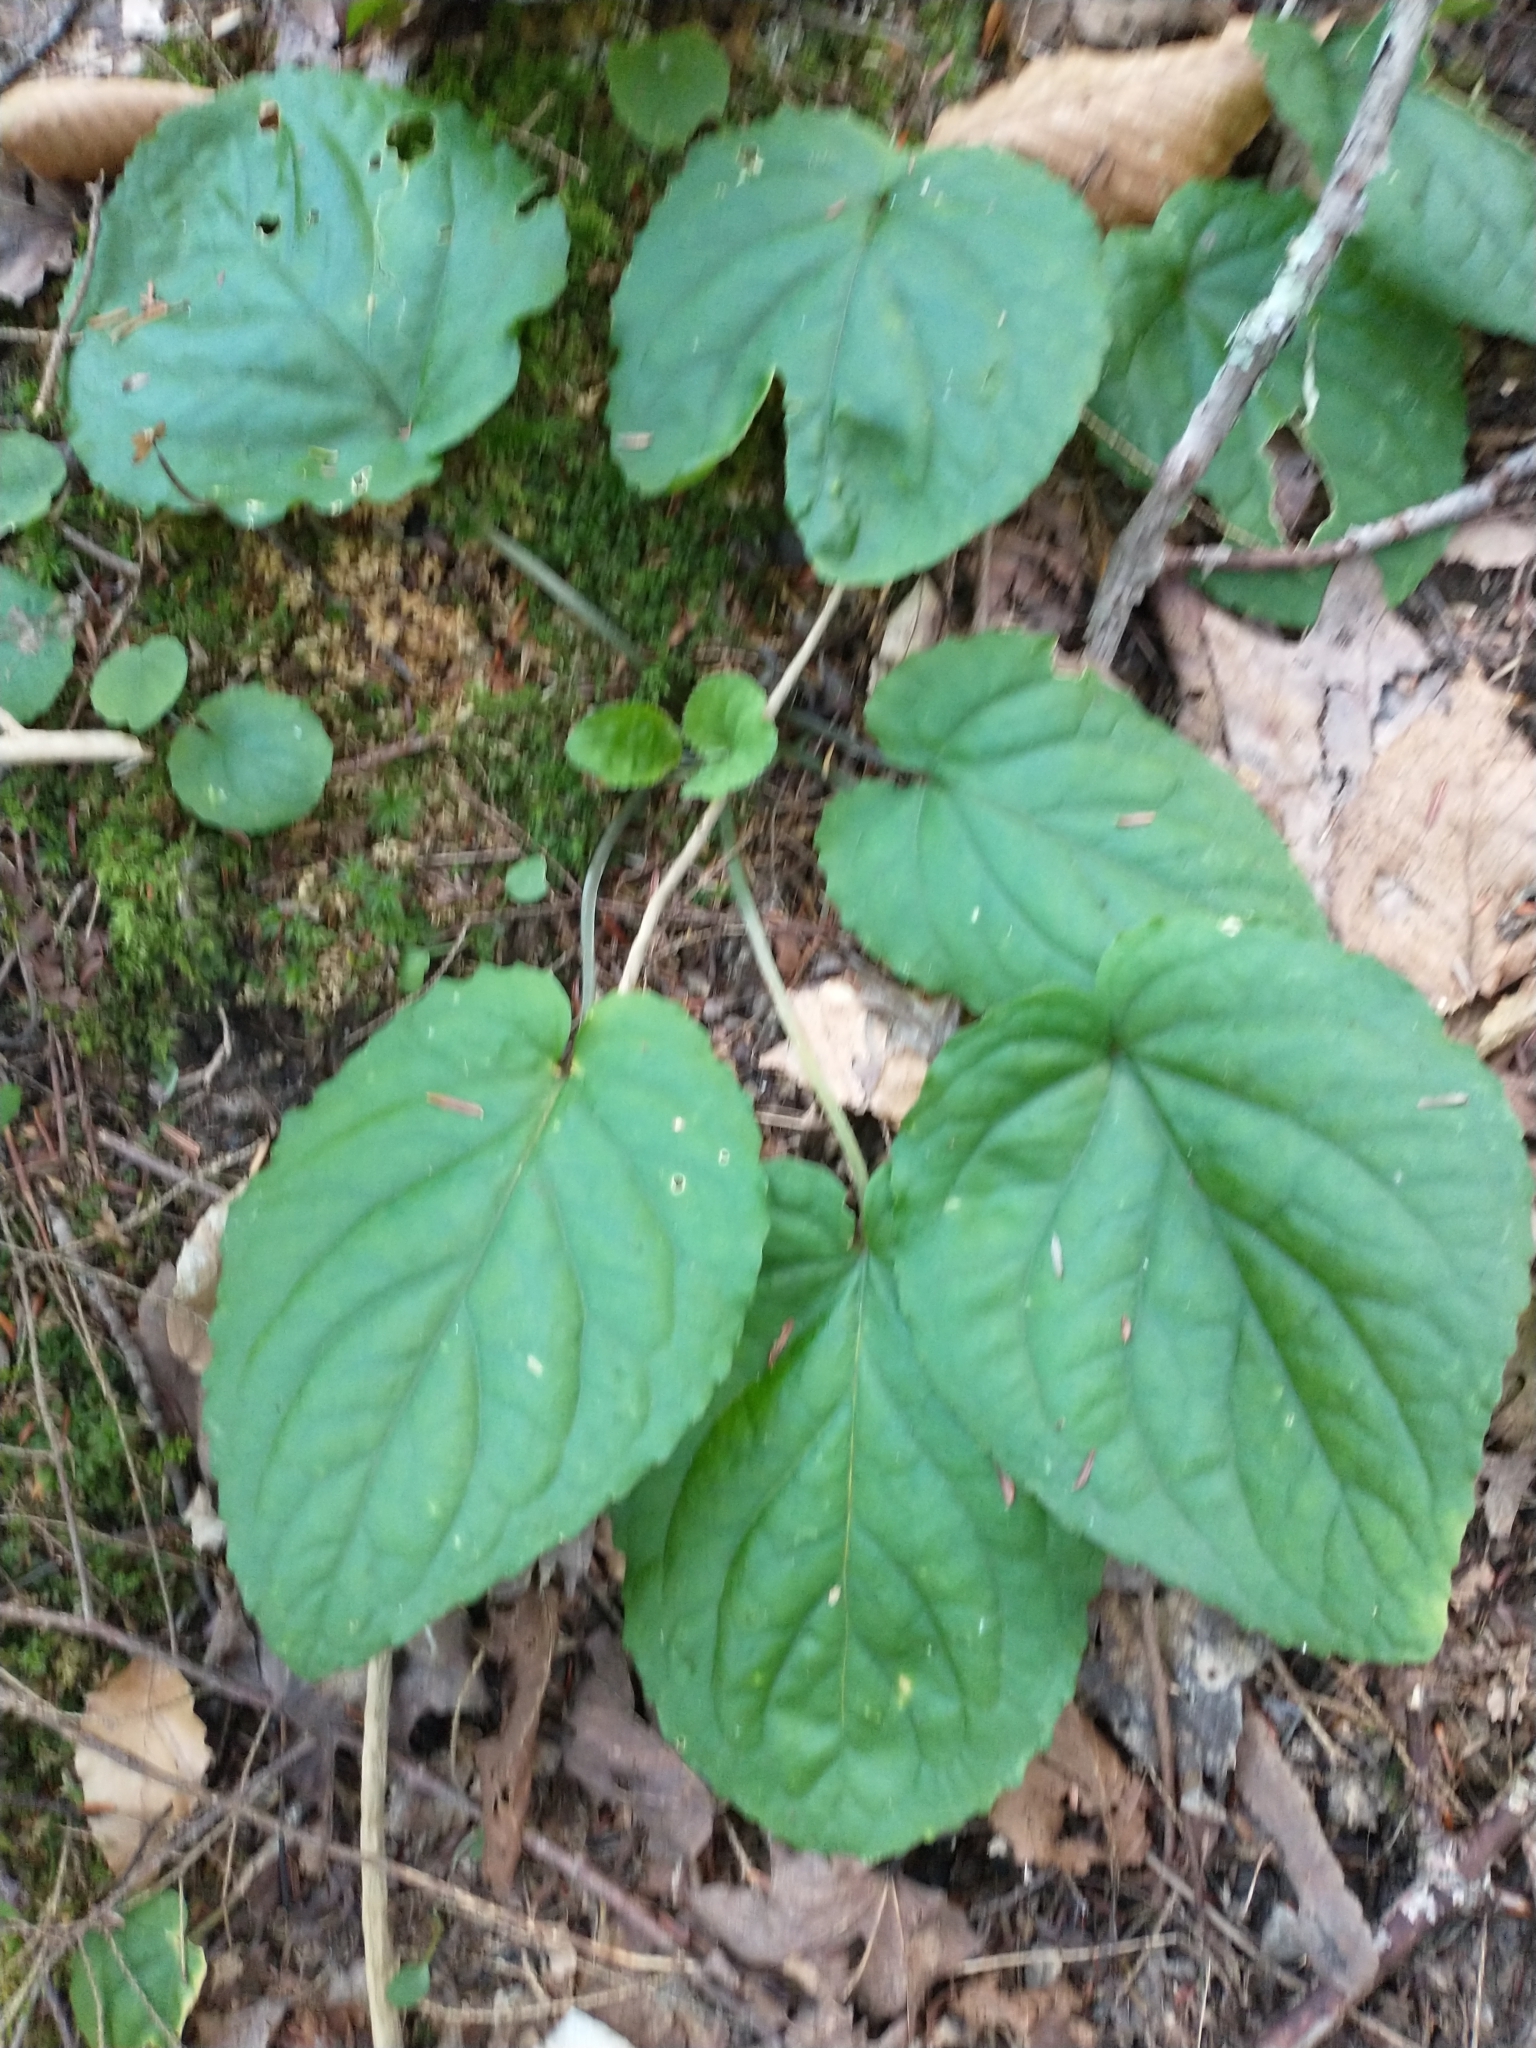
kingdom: Plantae
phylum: Tracheophyta
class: Magnoliopsida
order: Malpighiales
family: Violaceae
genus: Viola
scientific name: Viola rotundifolia
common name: Early yellow violet
